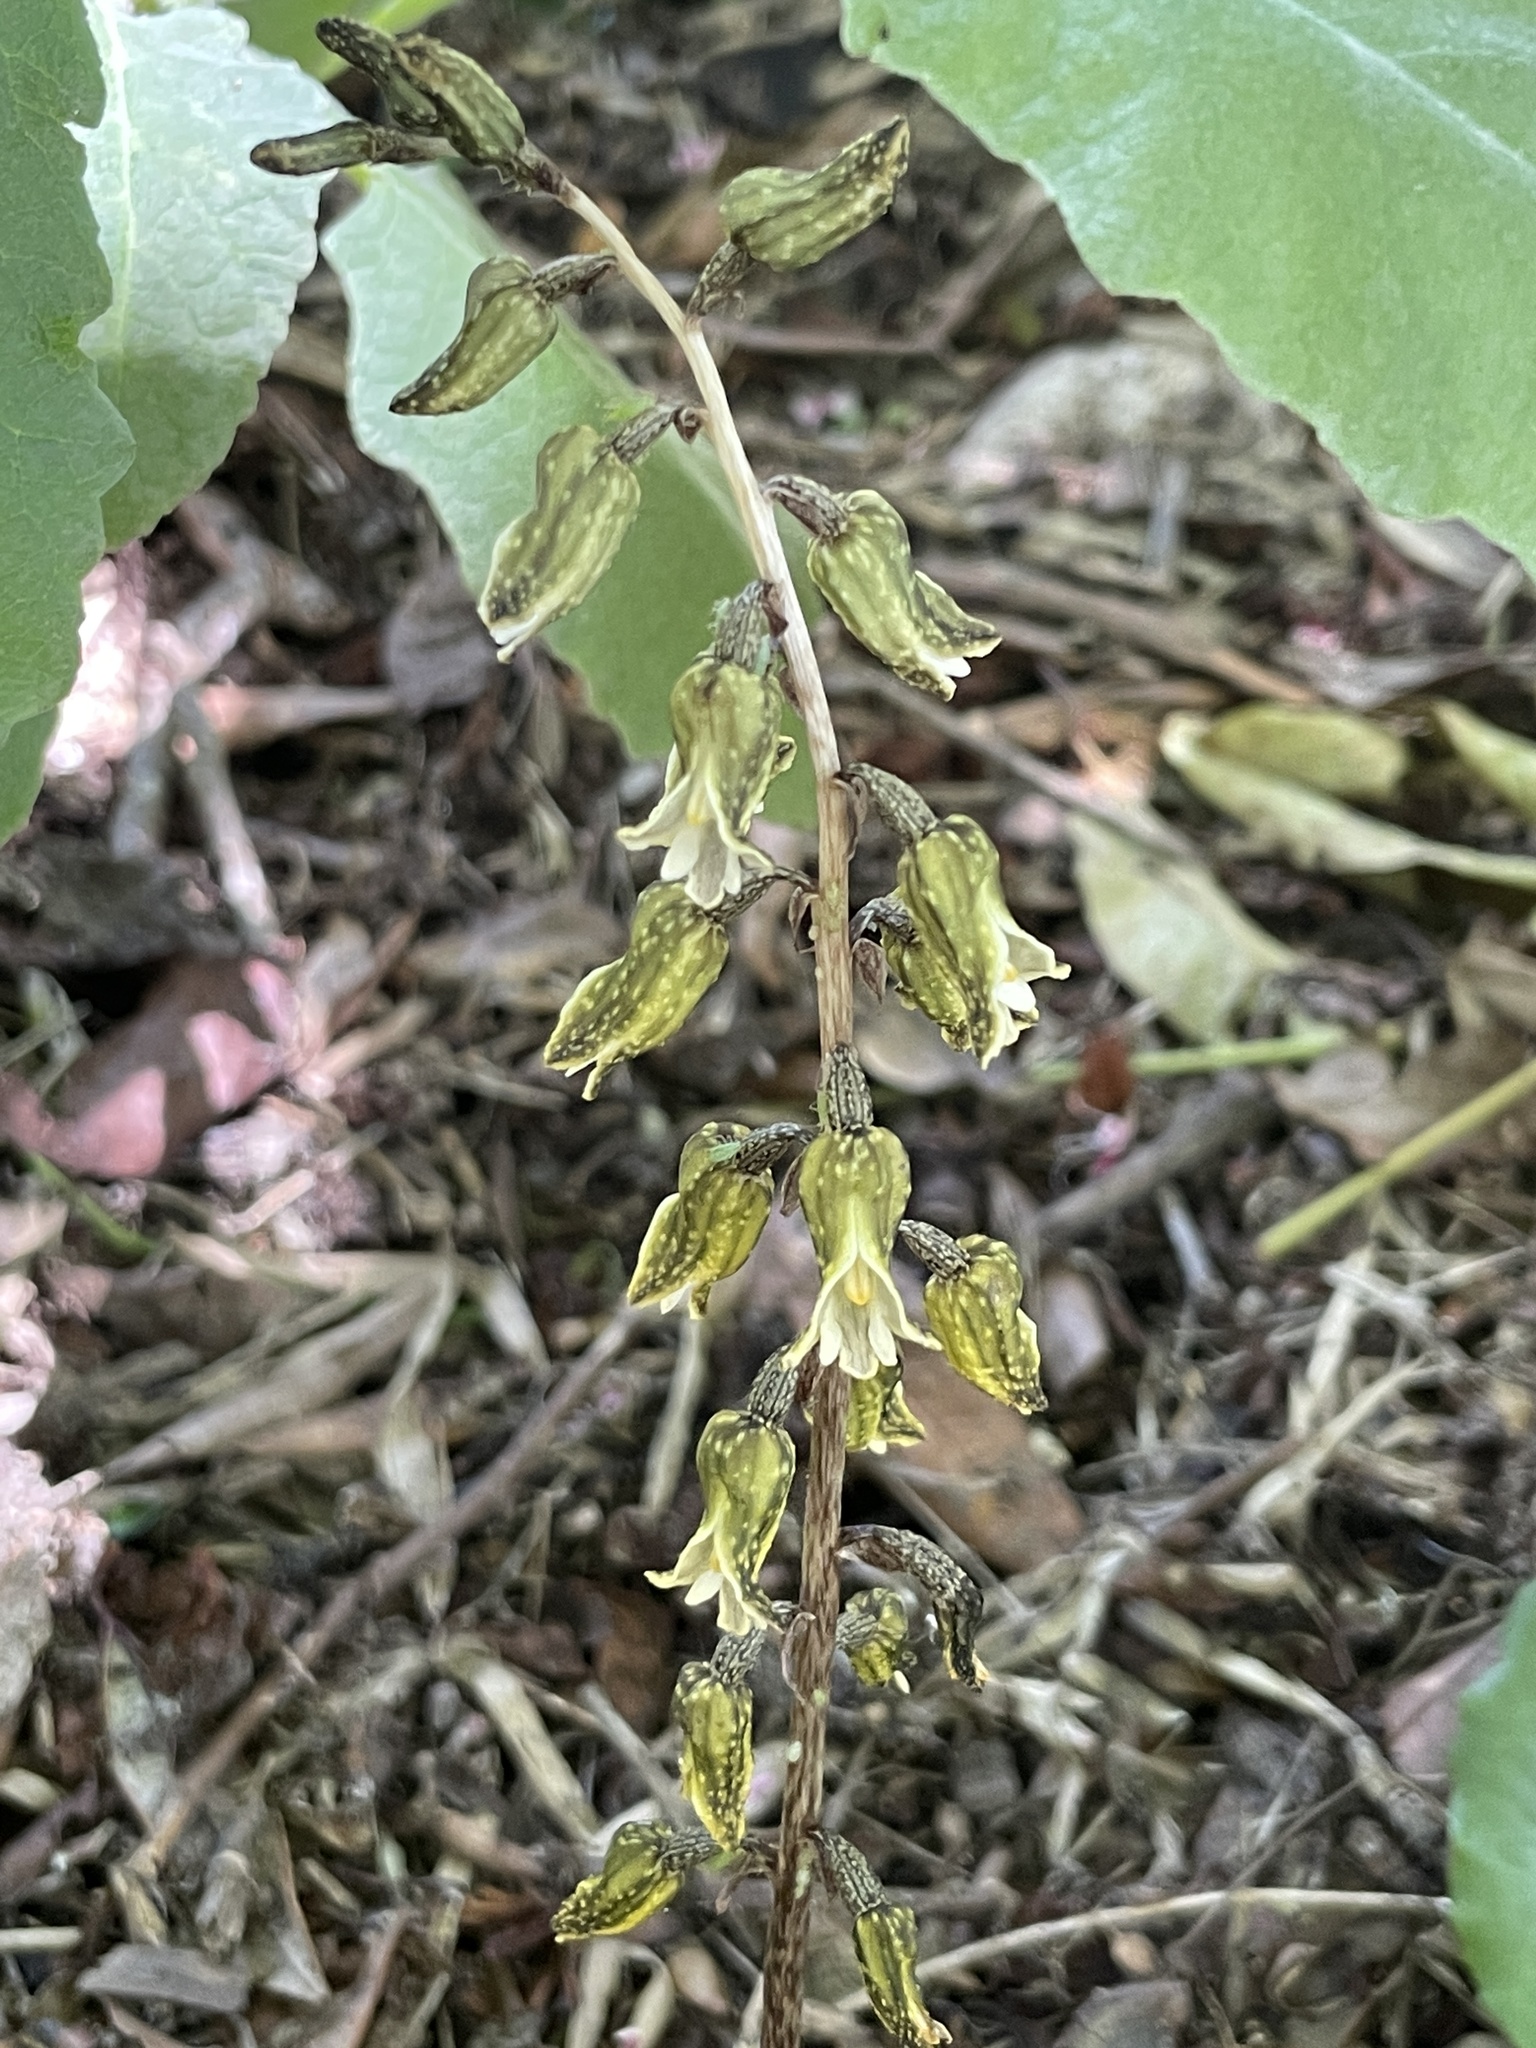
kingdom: Plantae
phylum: Tracheophyta
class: Liliopsida
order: Asparagales
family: Orchidaceae
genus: Gastrodia
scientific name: Gastrodia molloyi
